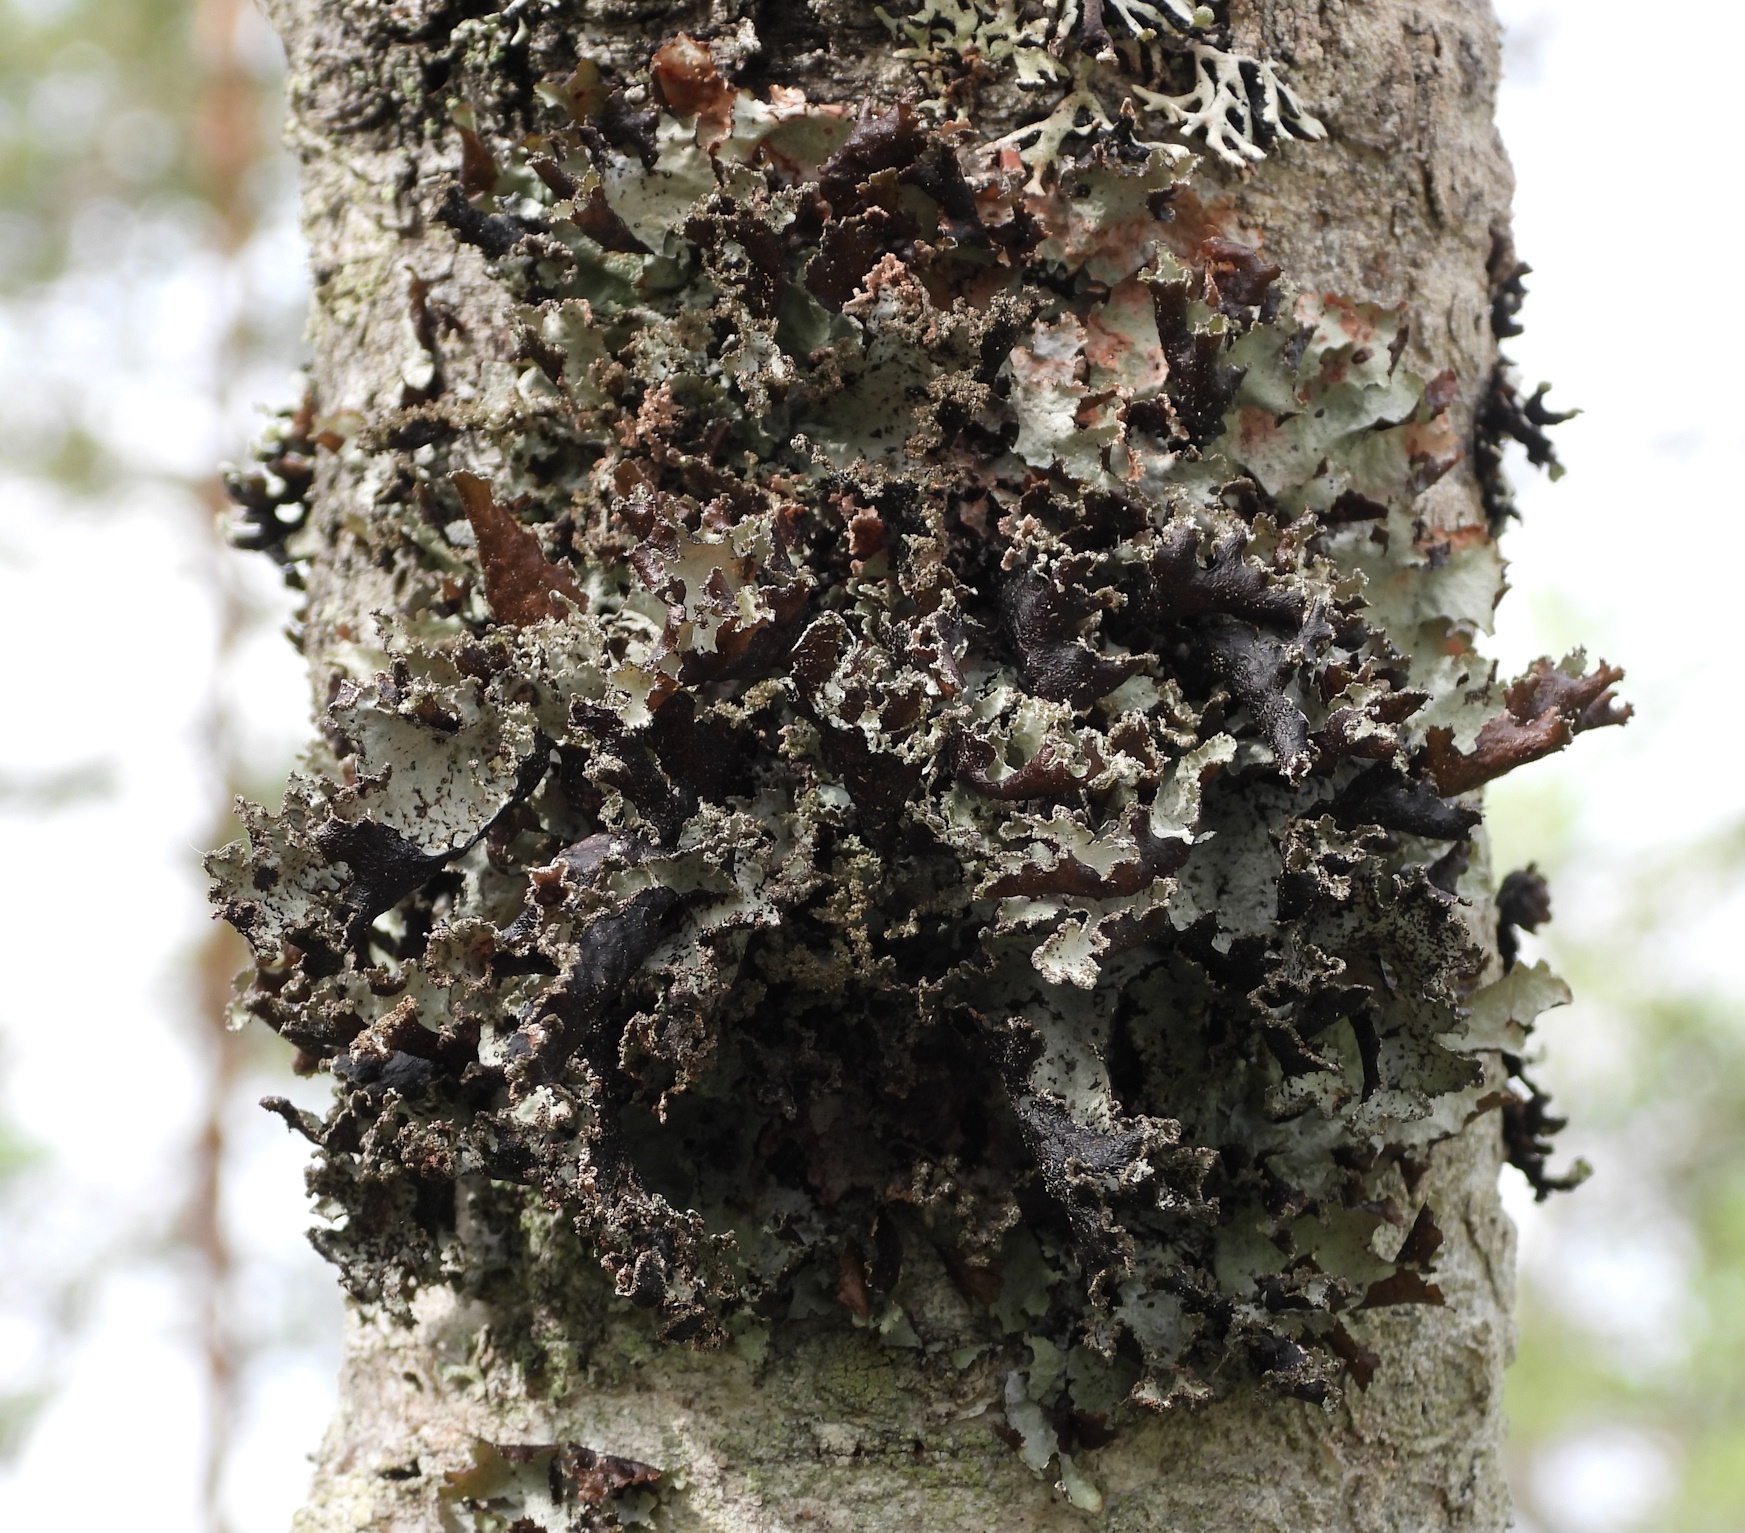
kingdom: Fungi
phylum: Ascomycota
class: Lecanoromycetes
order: Lecanorales
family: Parmeliaceae
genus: Platismatia
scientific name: Platismatia glauca
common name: Varied rag lichen
